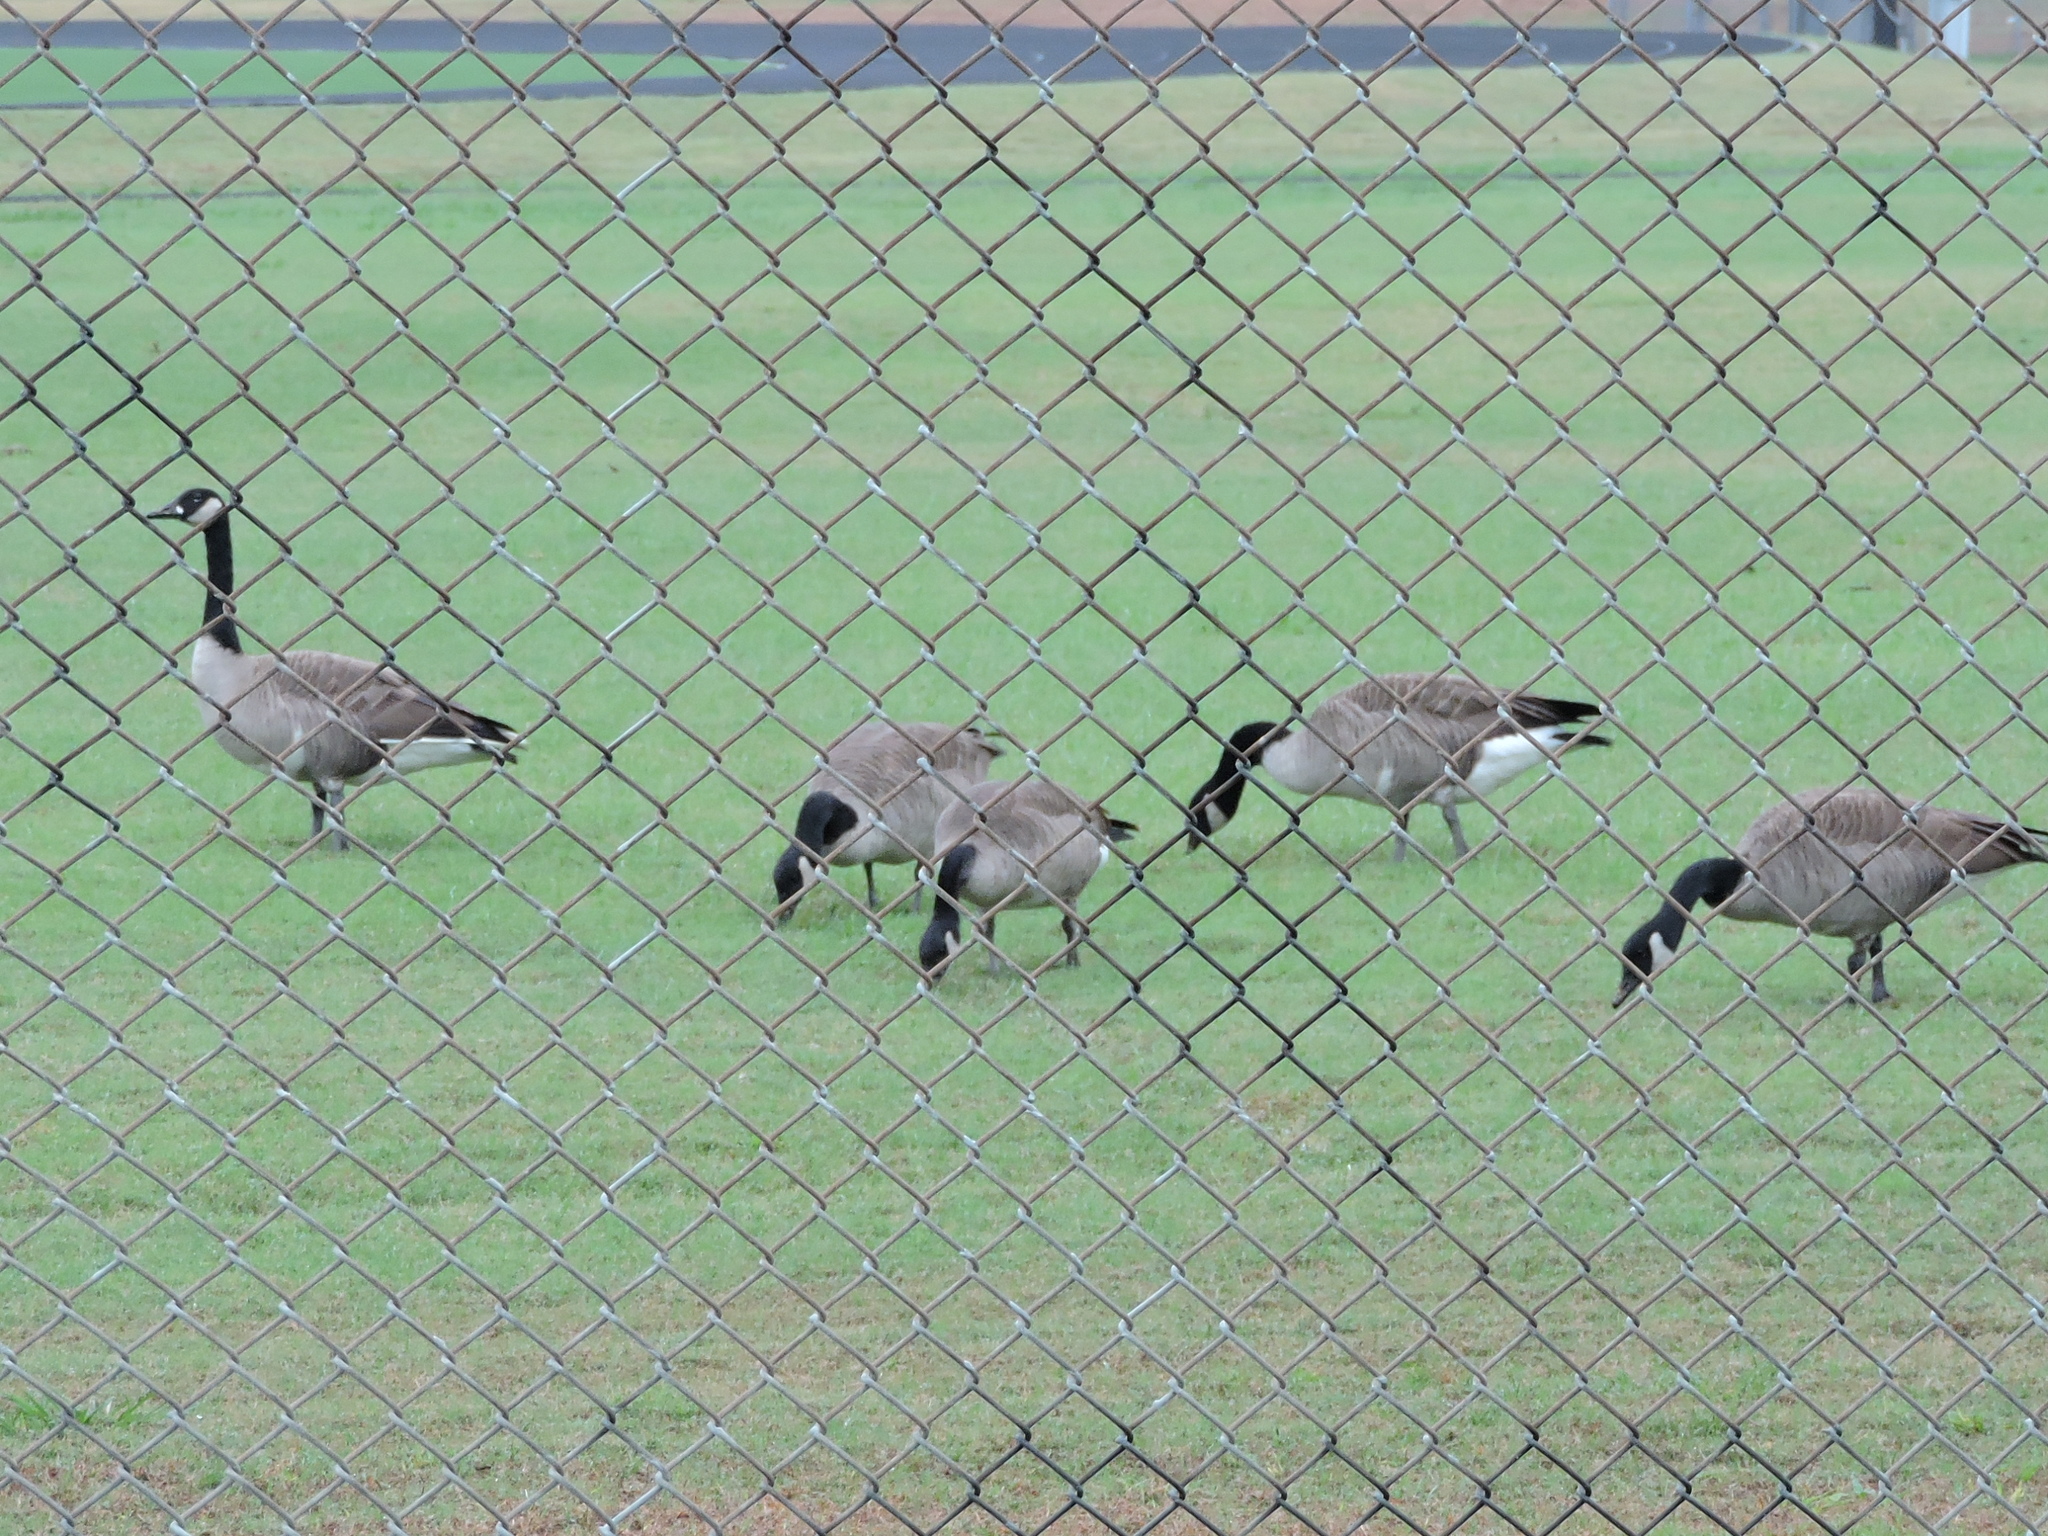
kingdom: Animalia
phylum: Chordata
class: Aves
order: Anseriformes
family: Anatidae
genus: Branta
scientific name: Branta canadensis
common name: Canada goose
